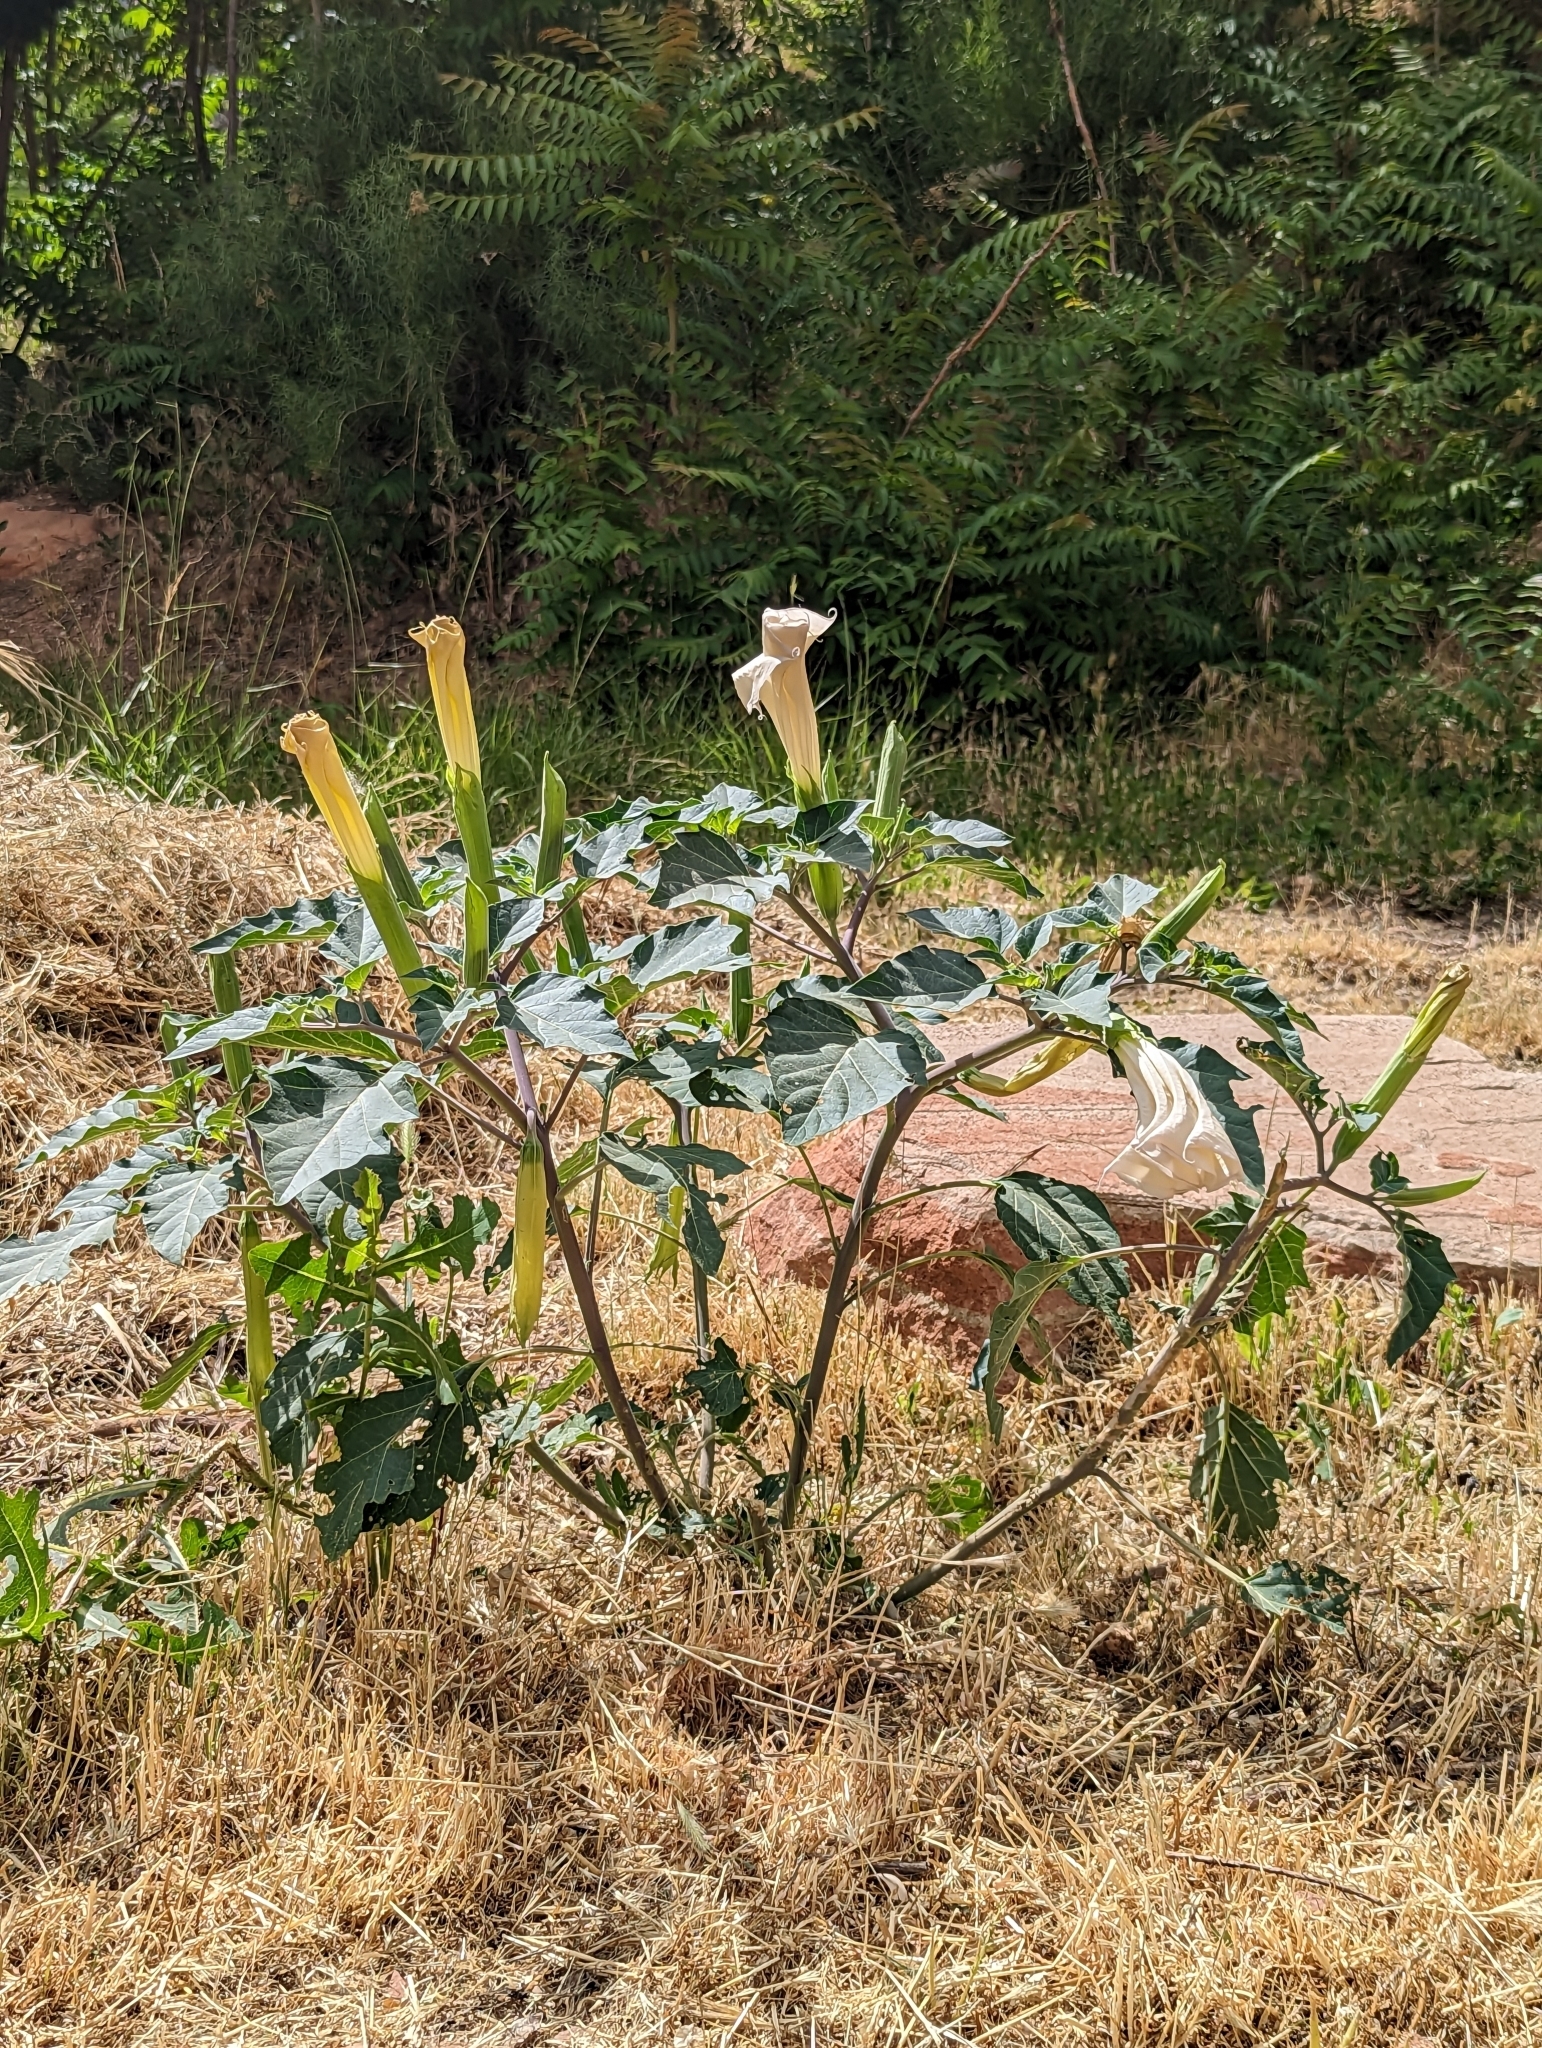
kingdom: Plantae
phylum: Tracheophyta
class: Magnoliopsida
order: Solanales
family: Solanaceae
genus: Datura
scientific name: Datura wrightii
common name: Sacred thorn-apple
